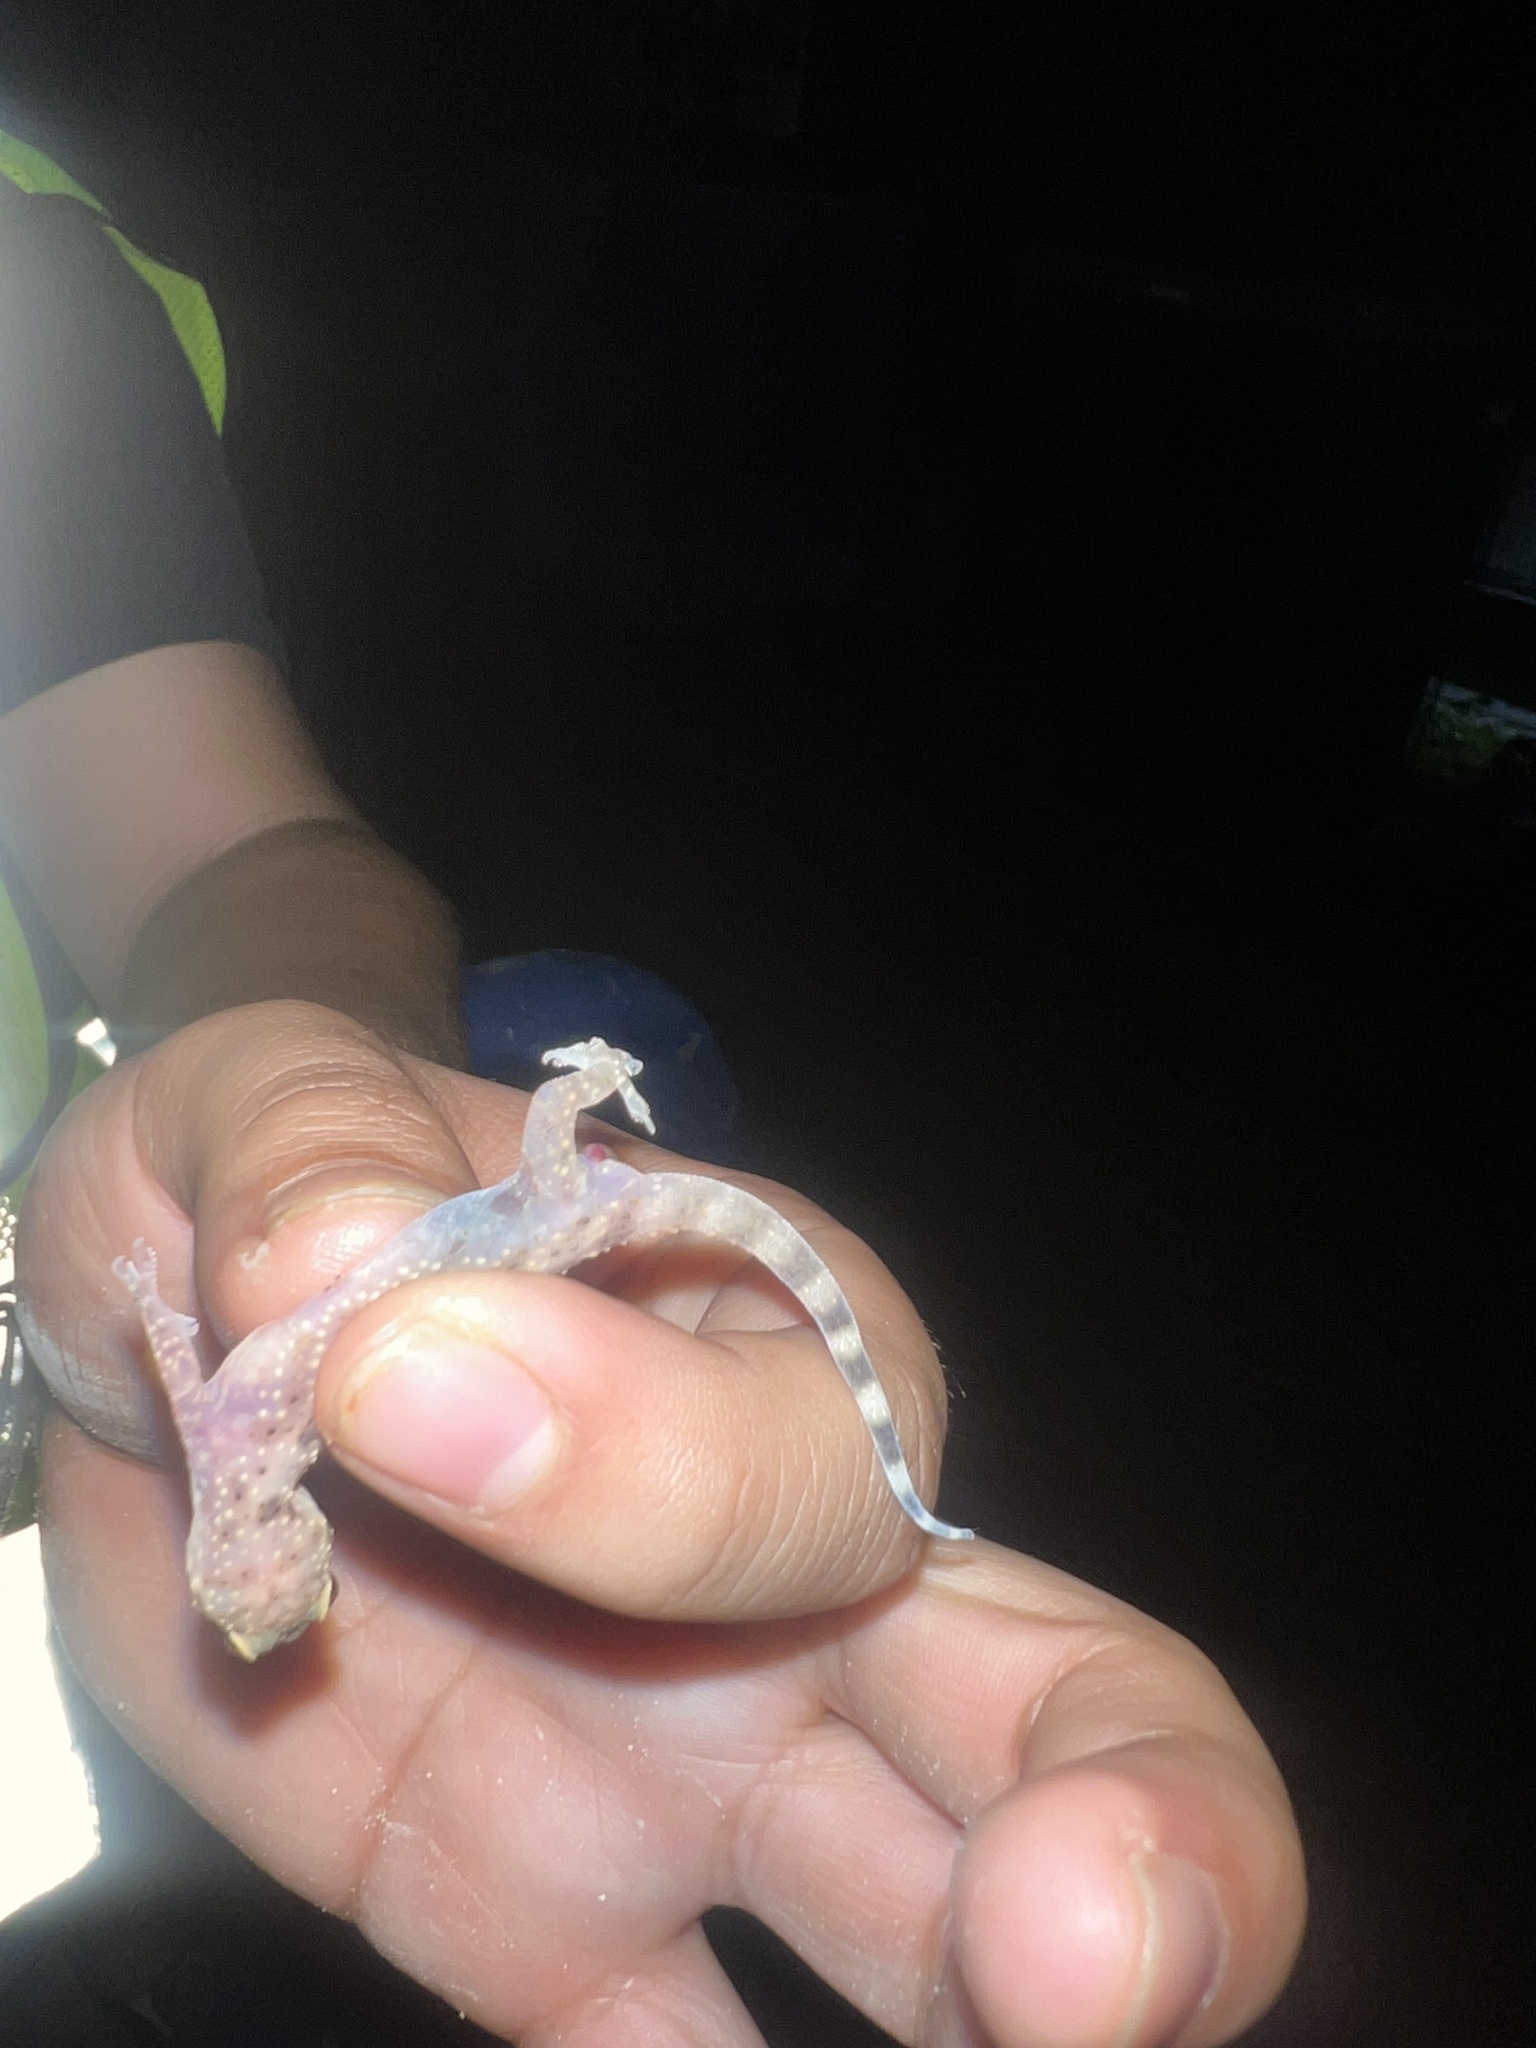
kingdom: Animalia
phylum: Chordata
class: Squamata
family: Gekkonidae
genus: Hemidactylus
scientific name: Hemidactylus turcicus
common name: Turkish gecko
